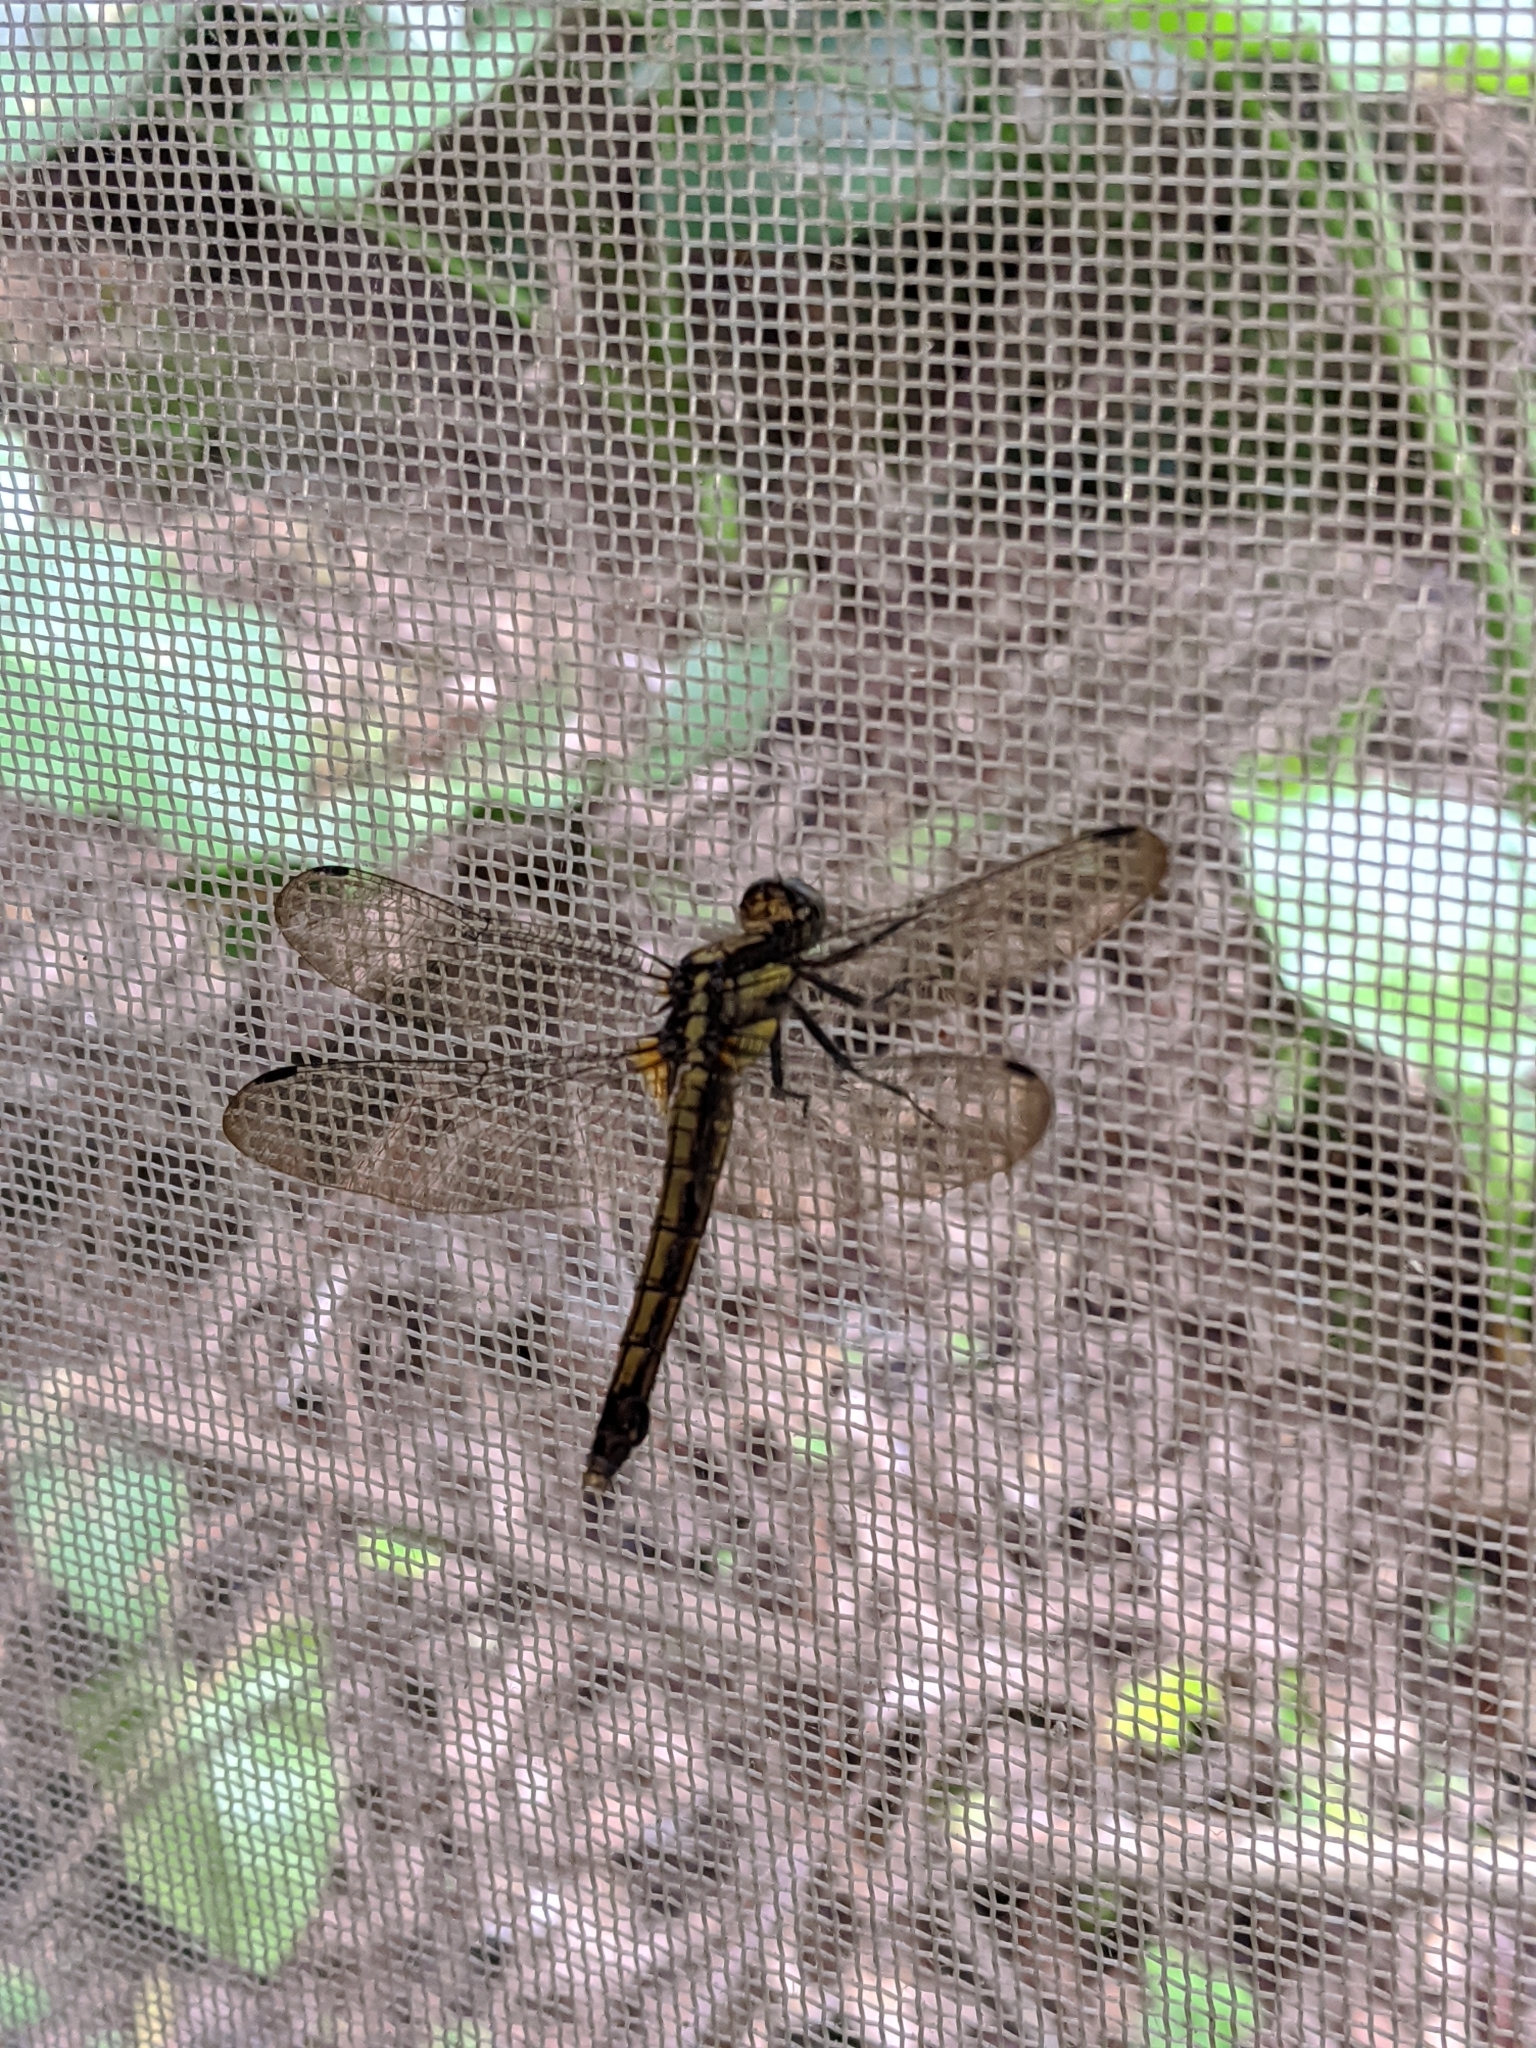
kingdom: Animalia
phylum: Arthropoda
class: Insecta
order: Odonata
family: Libellulidae
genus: Orthetrum
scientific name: Orthetrum triangulare
